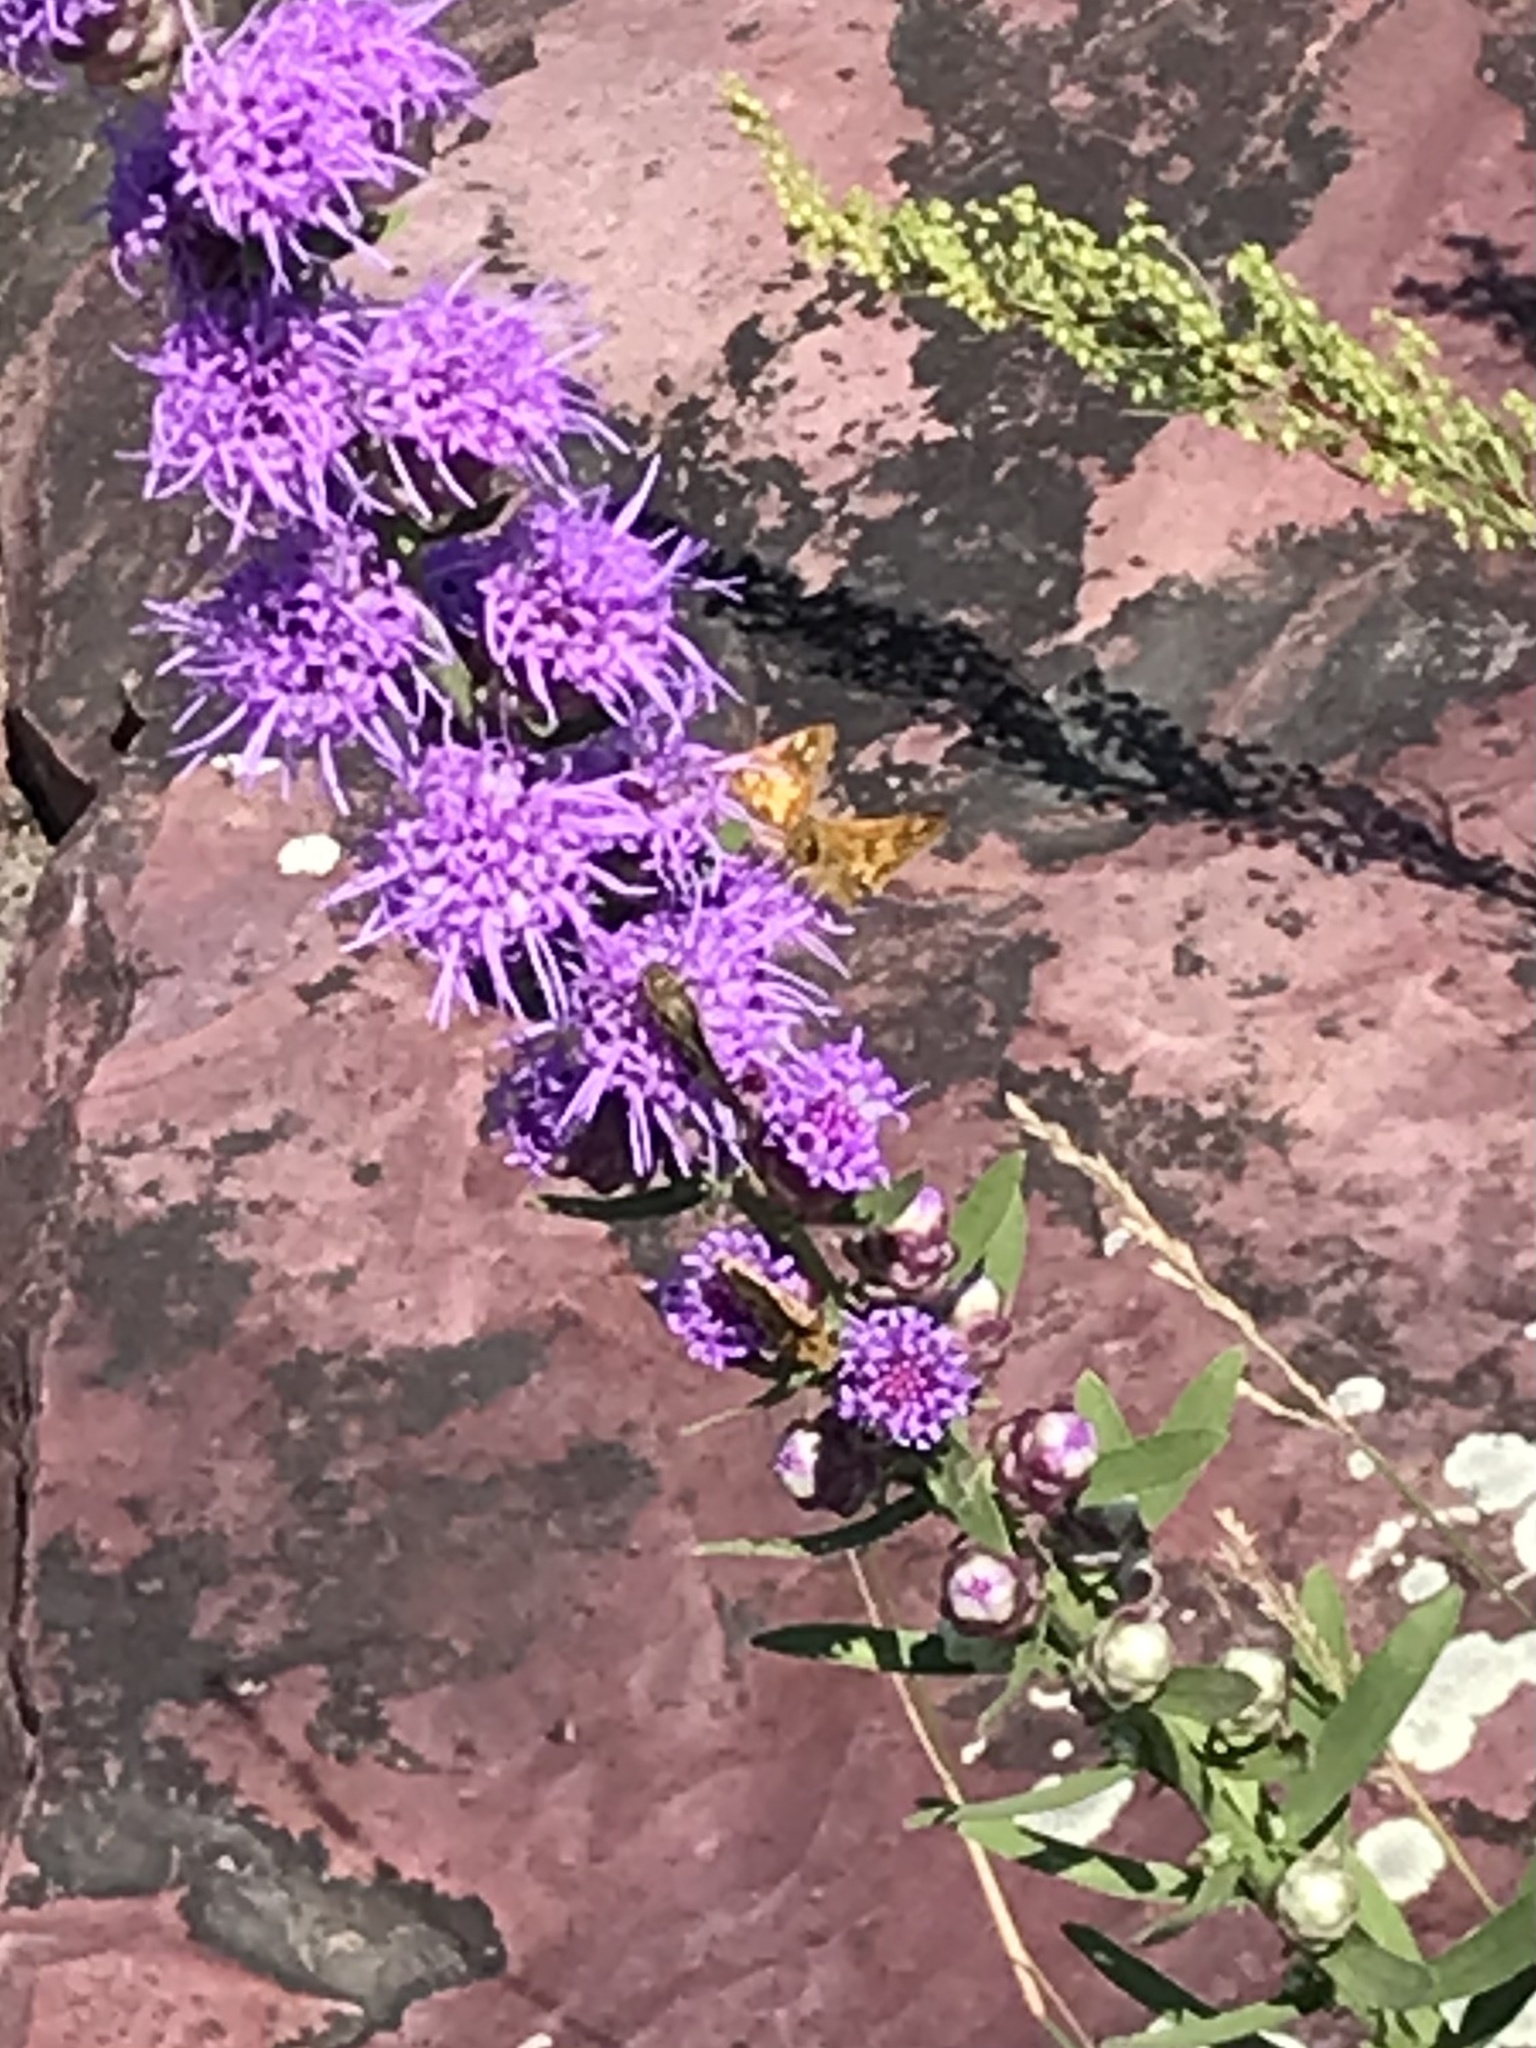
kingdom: Animalia
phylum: Arthropoda
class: Insecta
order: Lepidoptera
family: Hesperiidae
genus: Polites
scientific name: Polites coras
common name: Peck's skipper
